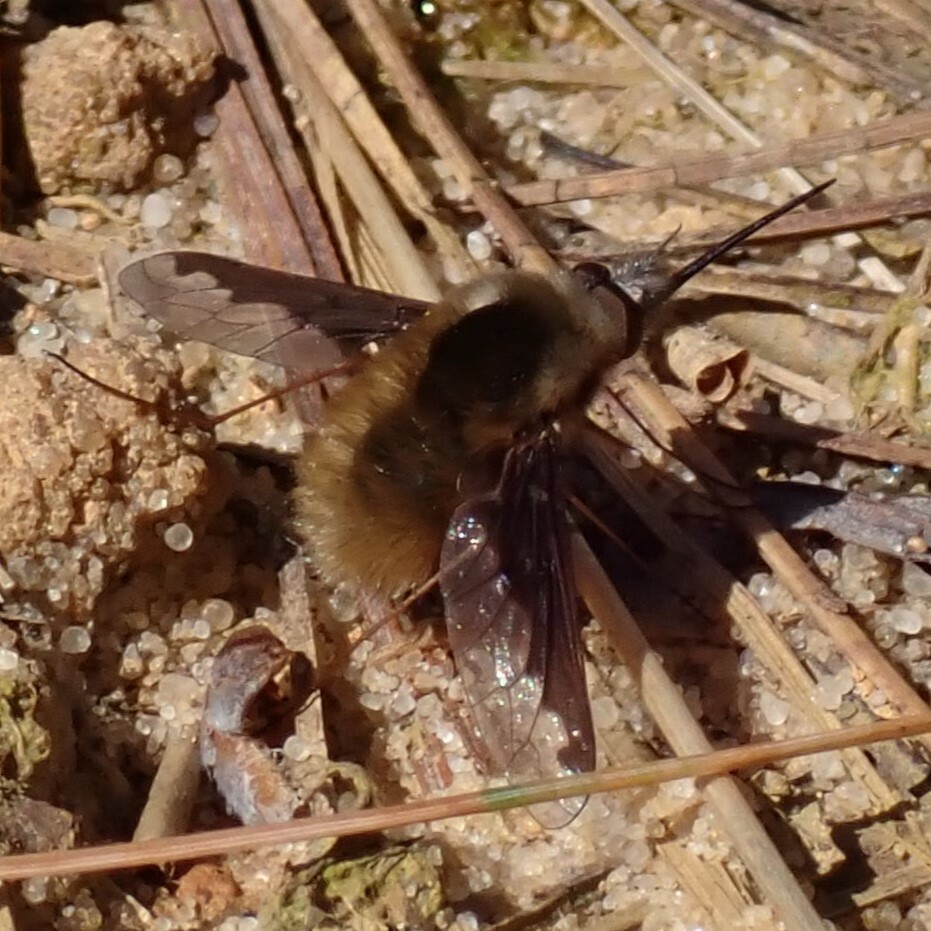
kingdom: Animalia
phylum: Arthropoda
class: Insecta
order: Diptera
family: Bombyliidae
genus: Bombylius
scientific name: Bombylius major
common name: Bee fly
